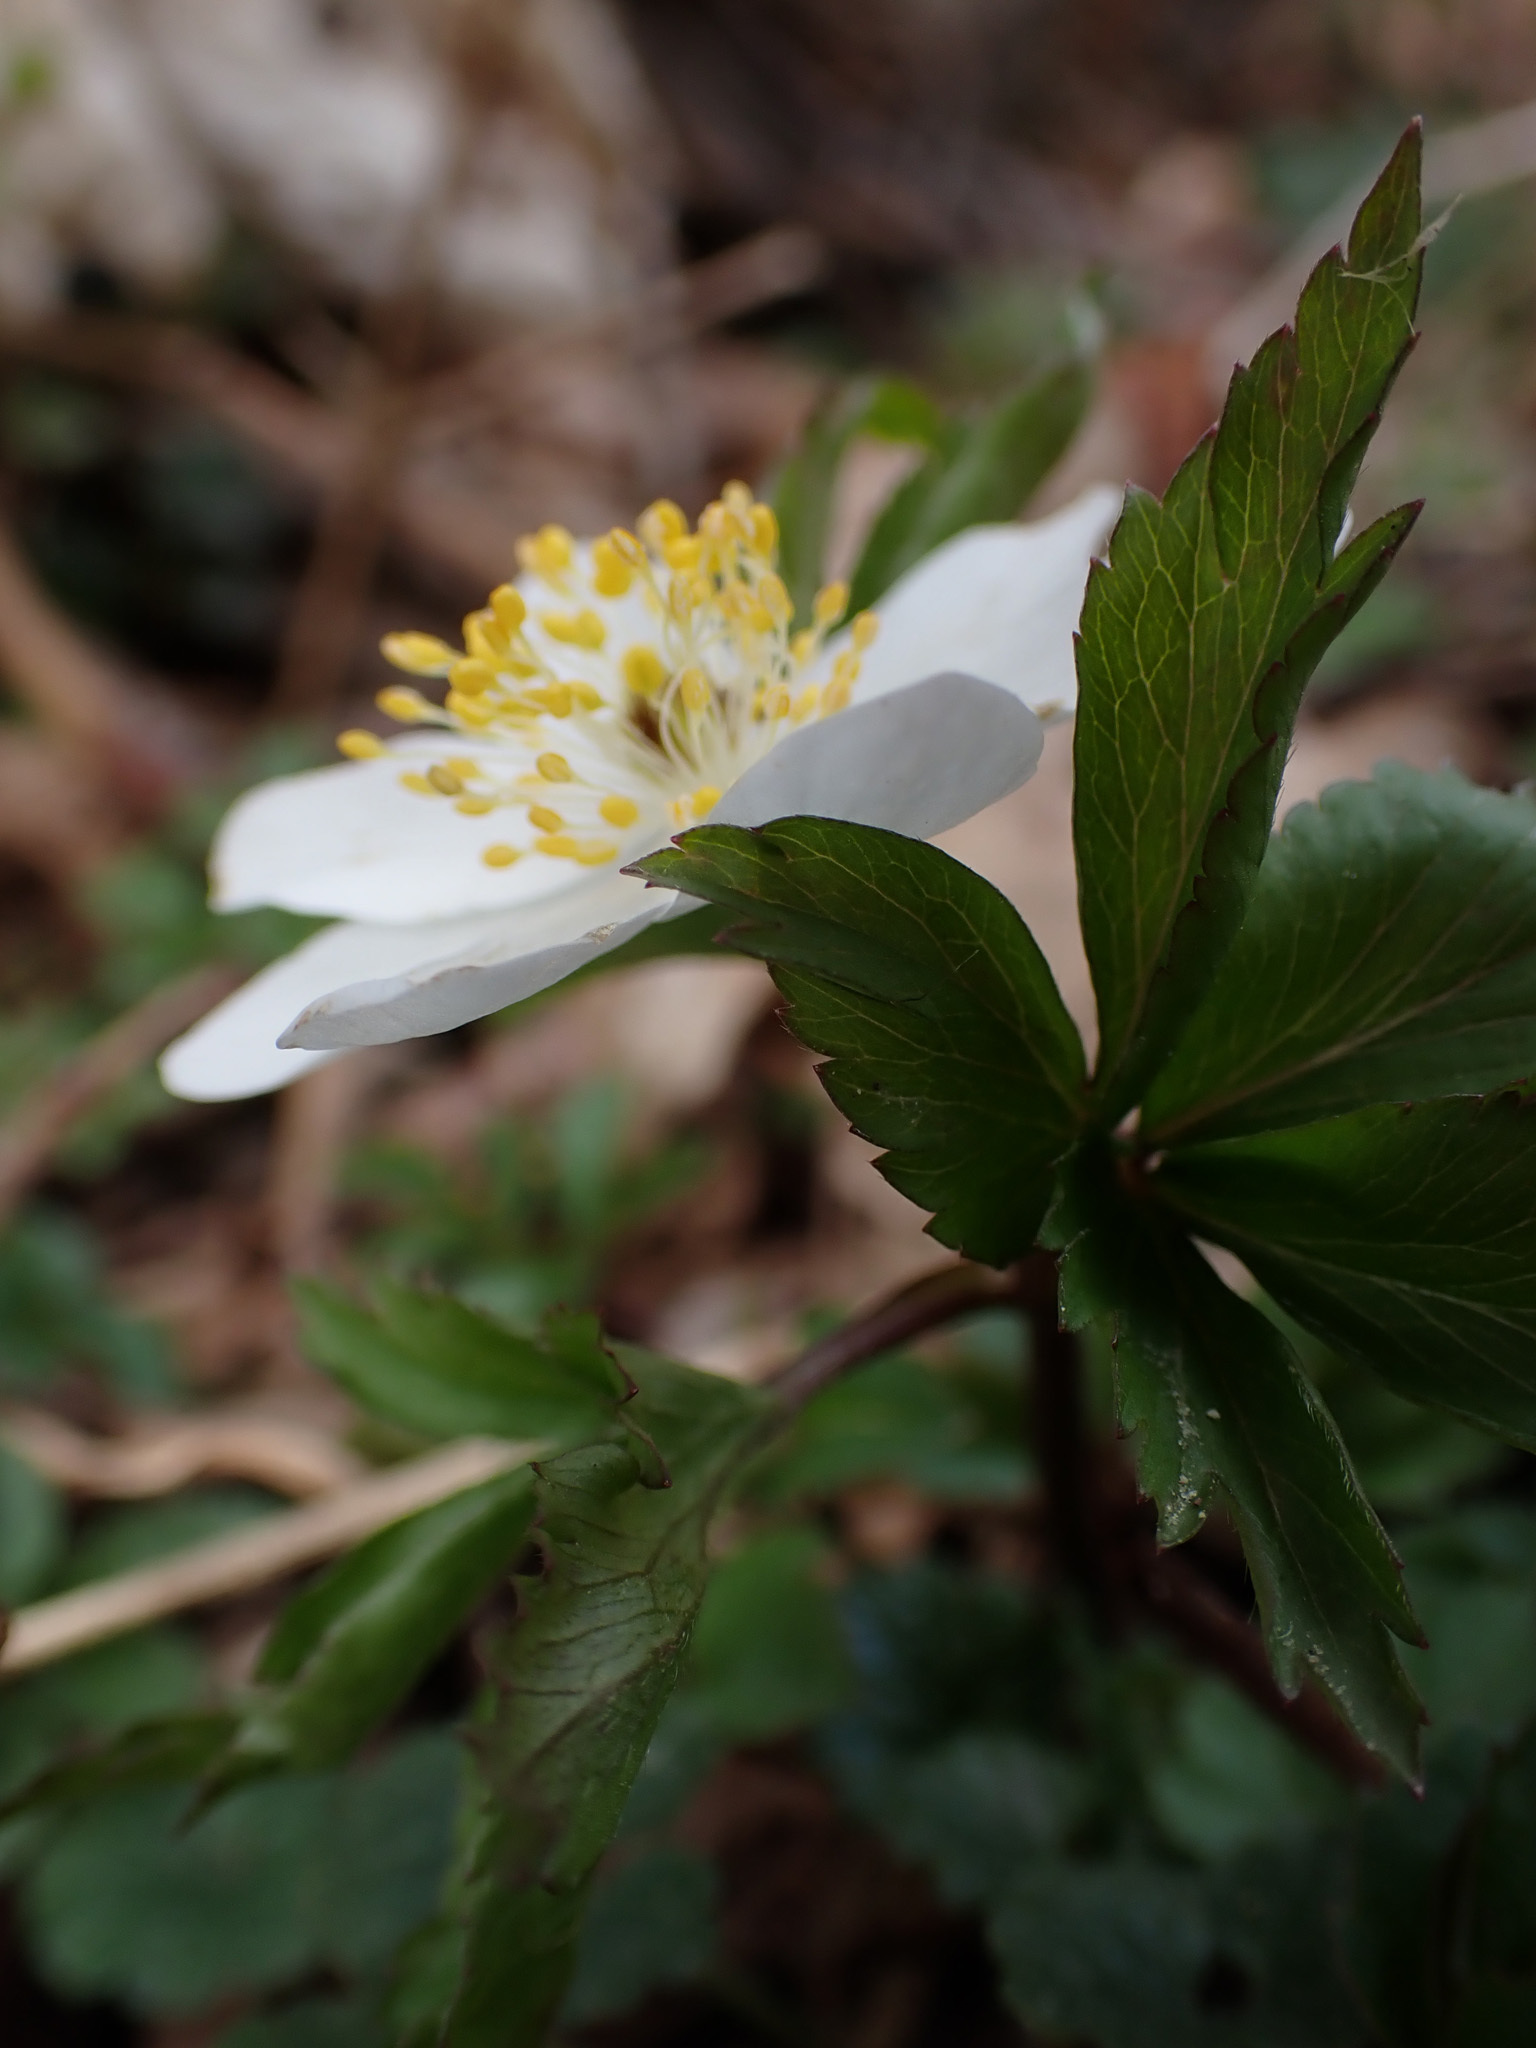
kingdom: Plantae
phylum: Tracheophyta
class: Magnoliopsida
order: Ranunculales
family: Ranunculaceae
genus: Anemone
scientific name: Anemone nemorosa
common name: Wood anemone
